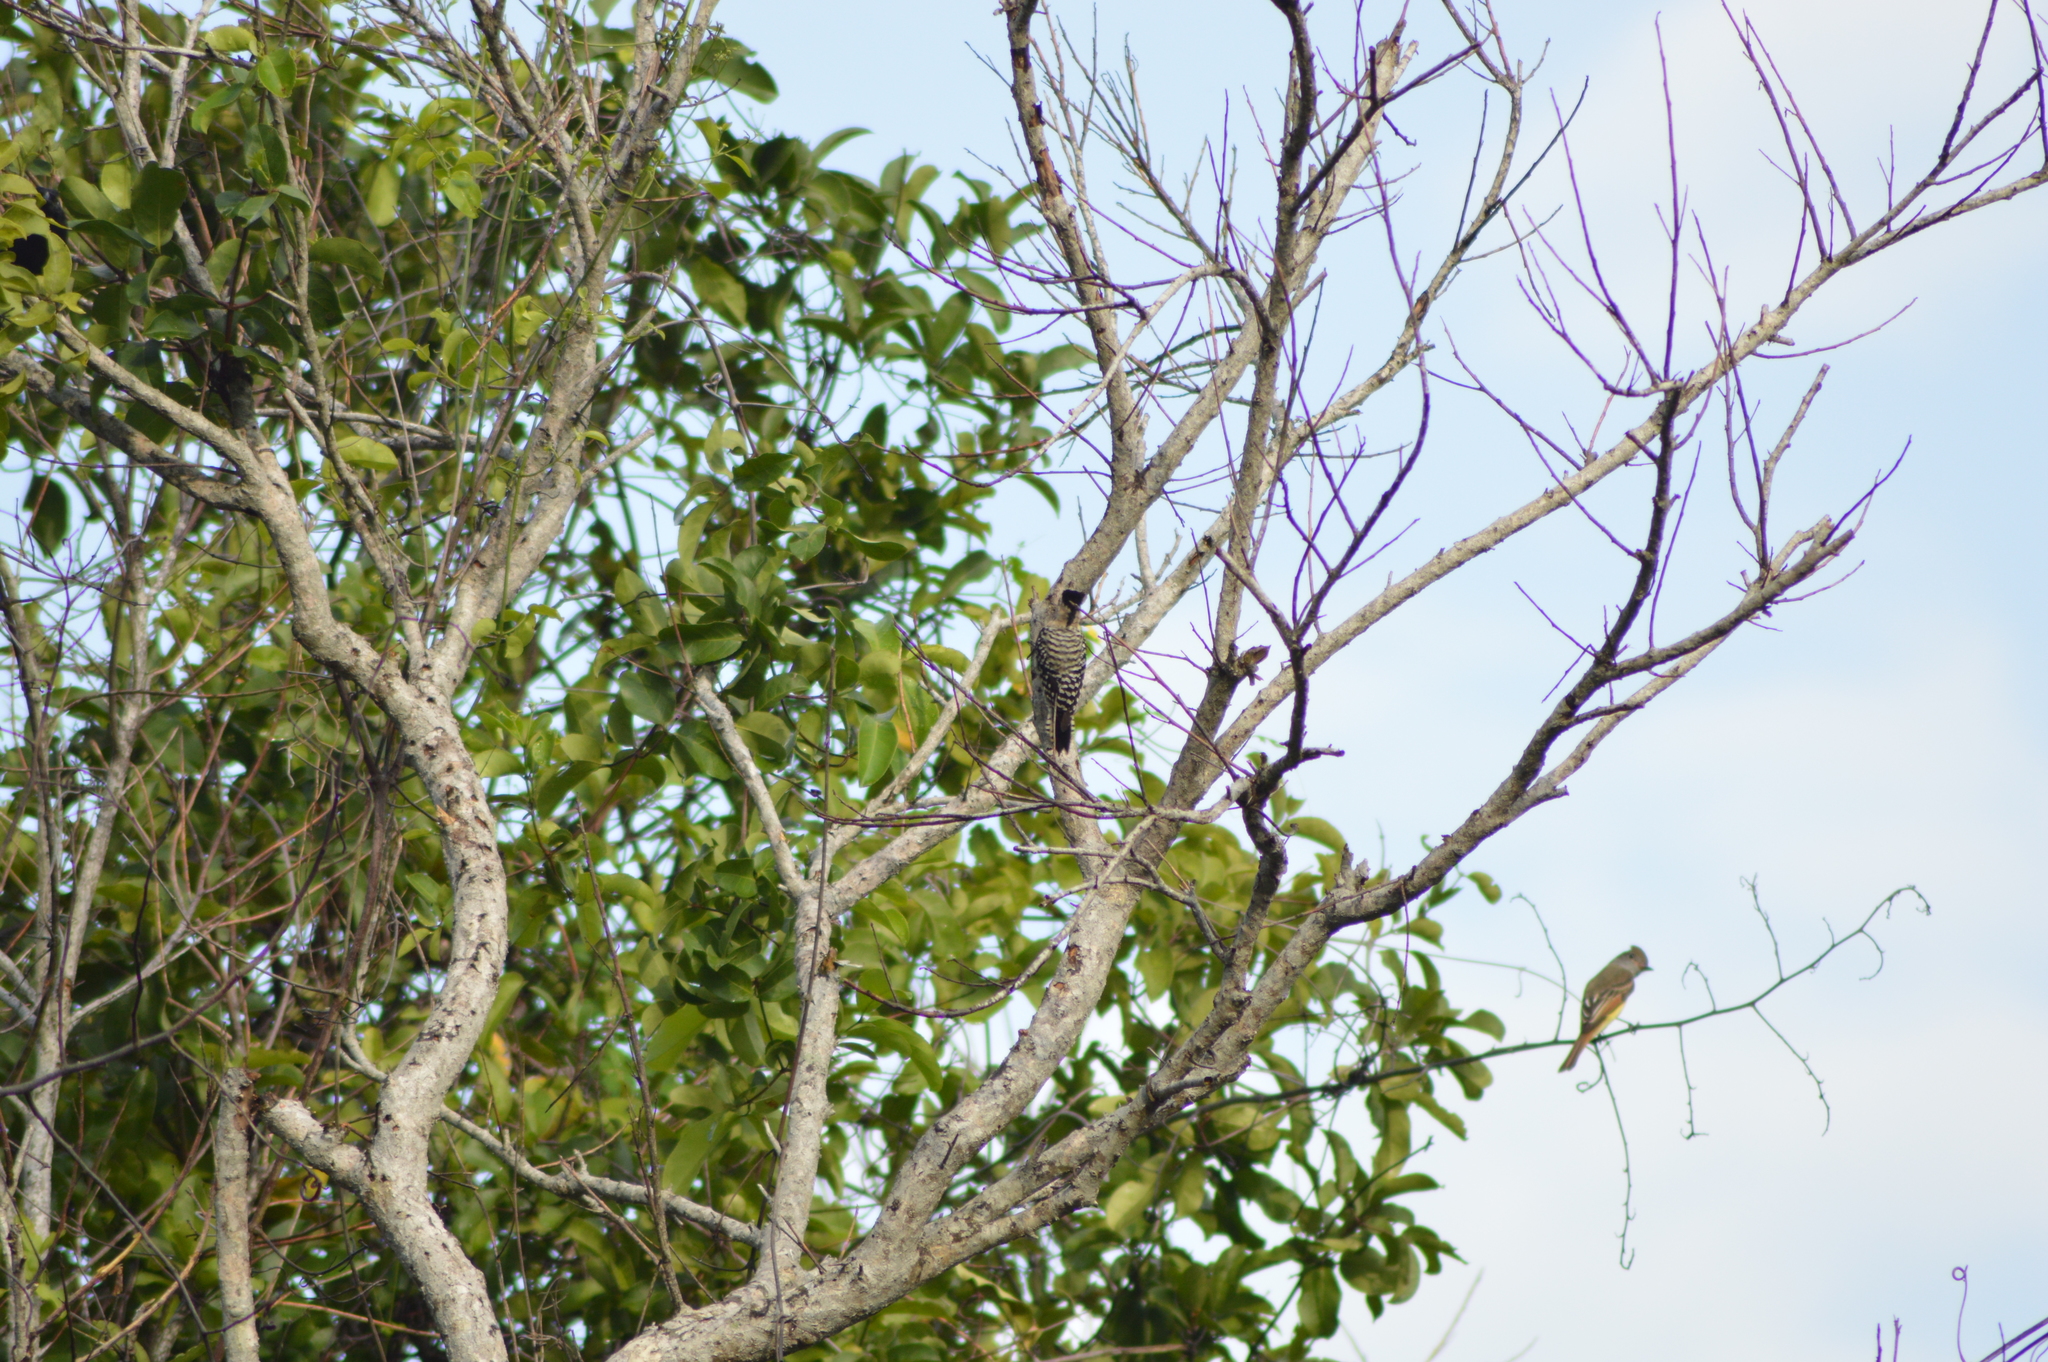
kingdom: Animalia
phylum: Chordata
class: Aves
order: Piciformes
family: Picidae
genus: Dryobates
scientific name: Dryobates scalaris
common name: Ladder-backed woodpecker
